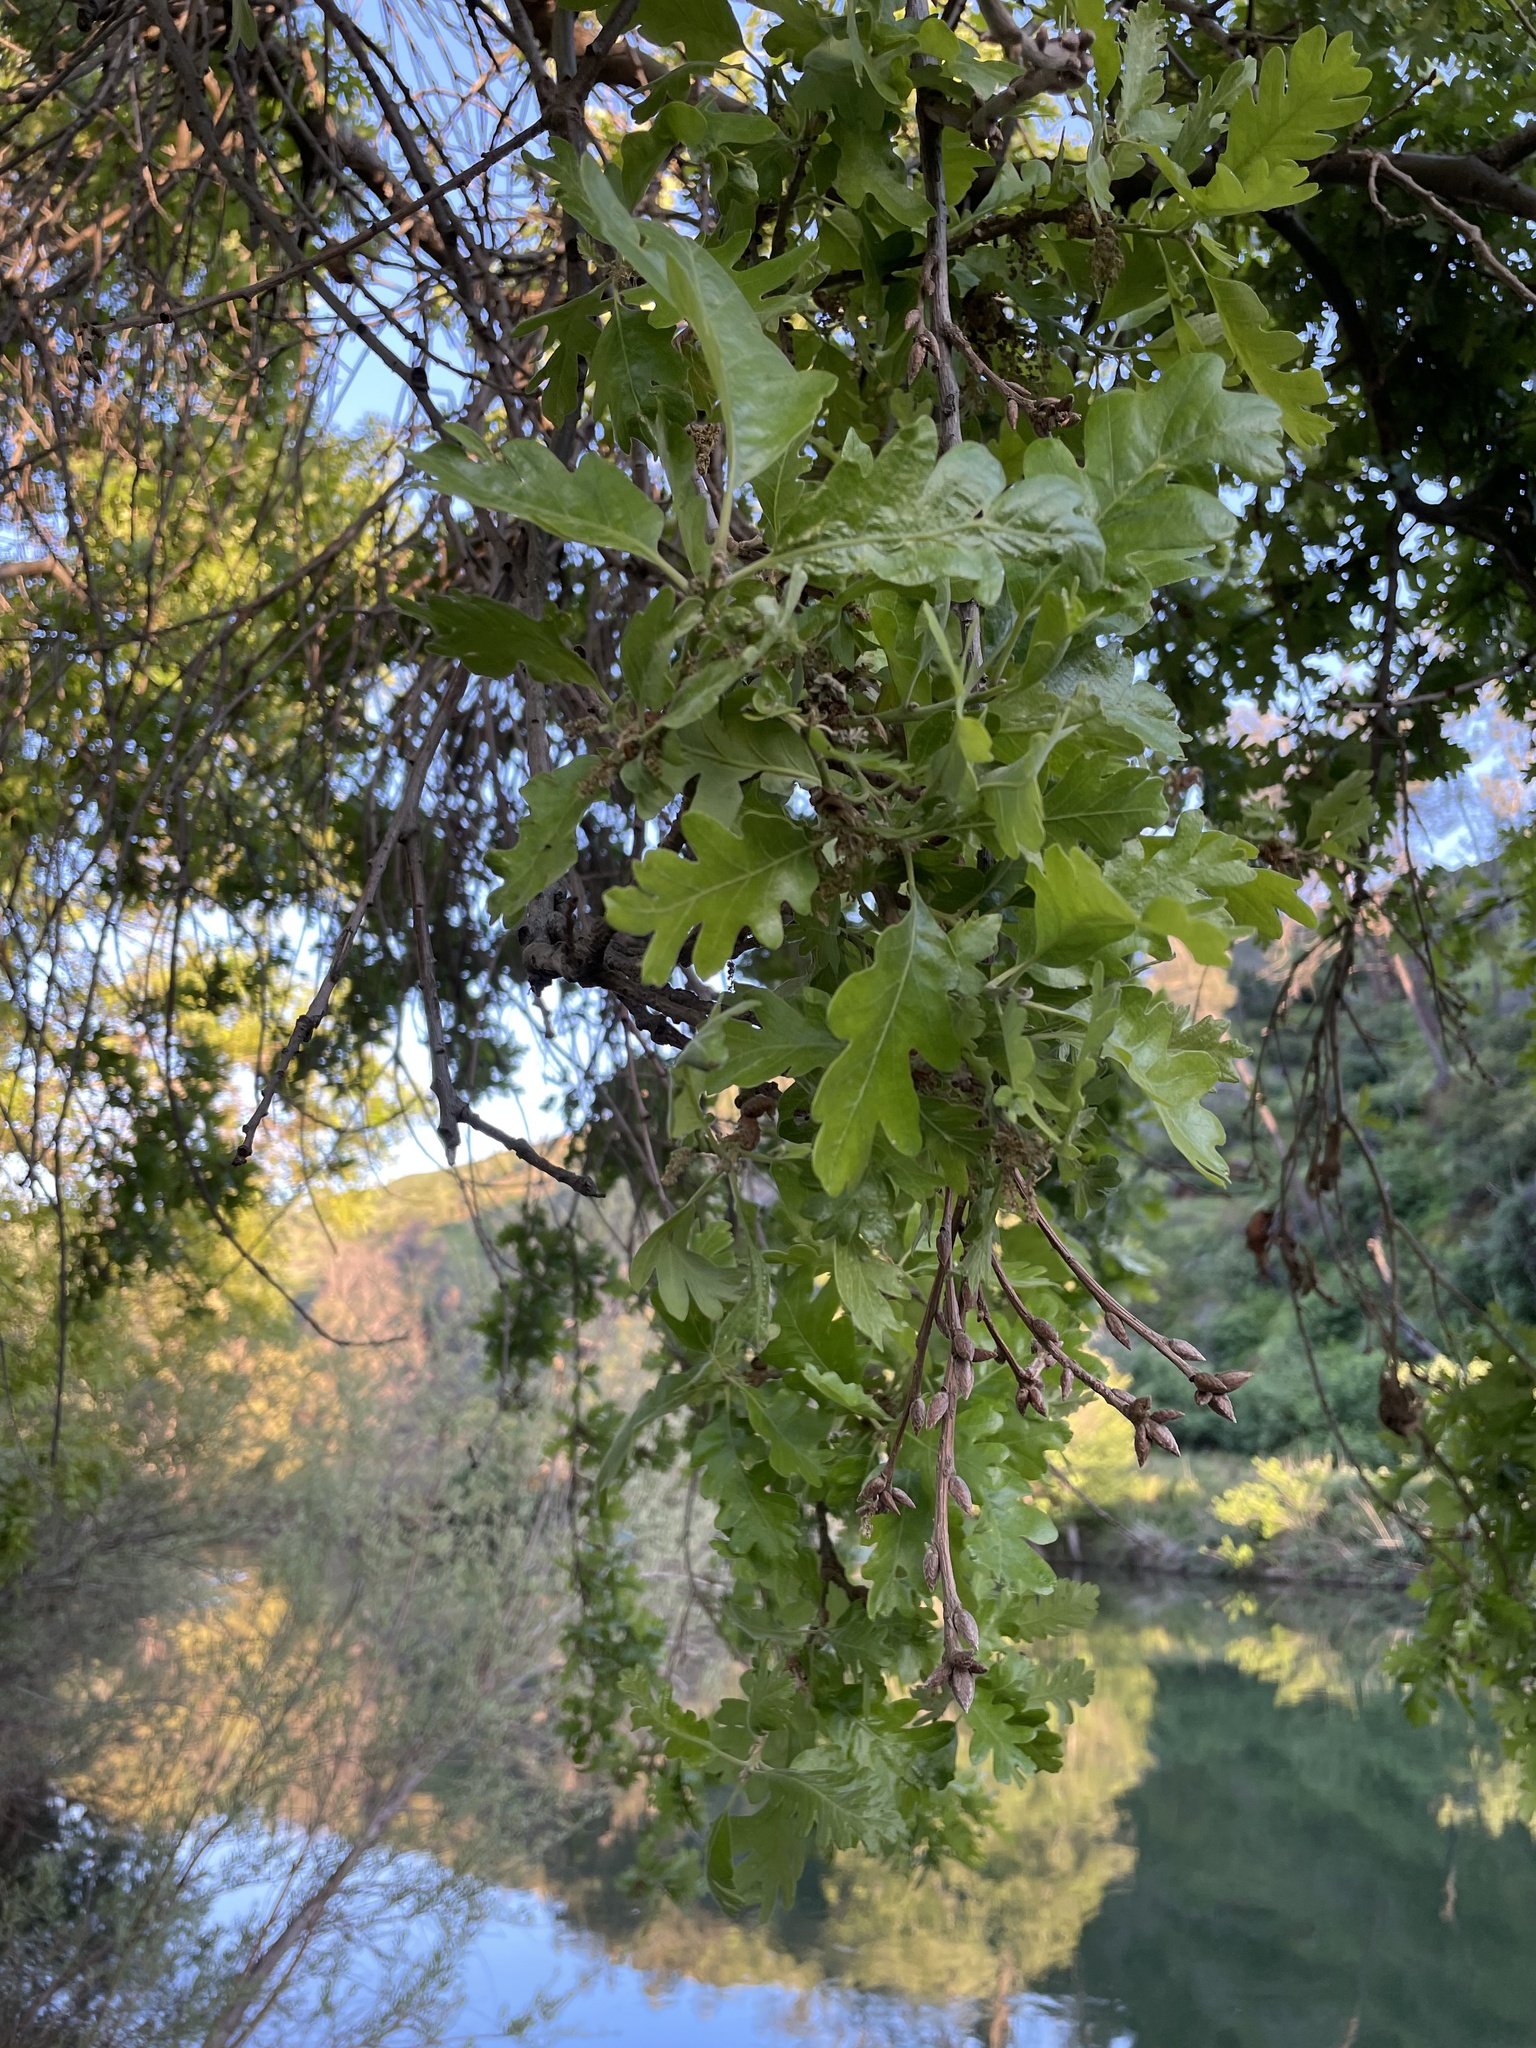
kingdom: Plantae
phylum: Tracheophyta
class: Magnoliopsida
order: Fagales
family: Fagaceae
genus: Quercus
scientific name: Quercus lobata
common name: Valley oak
